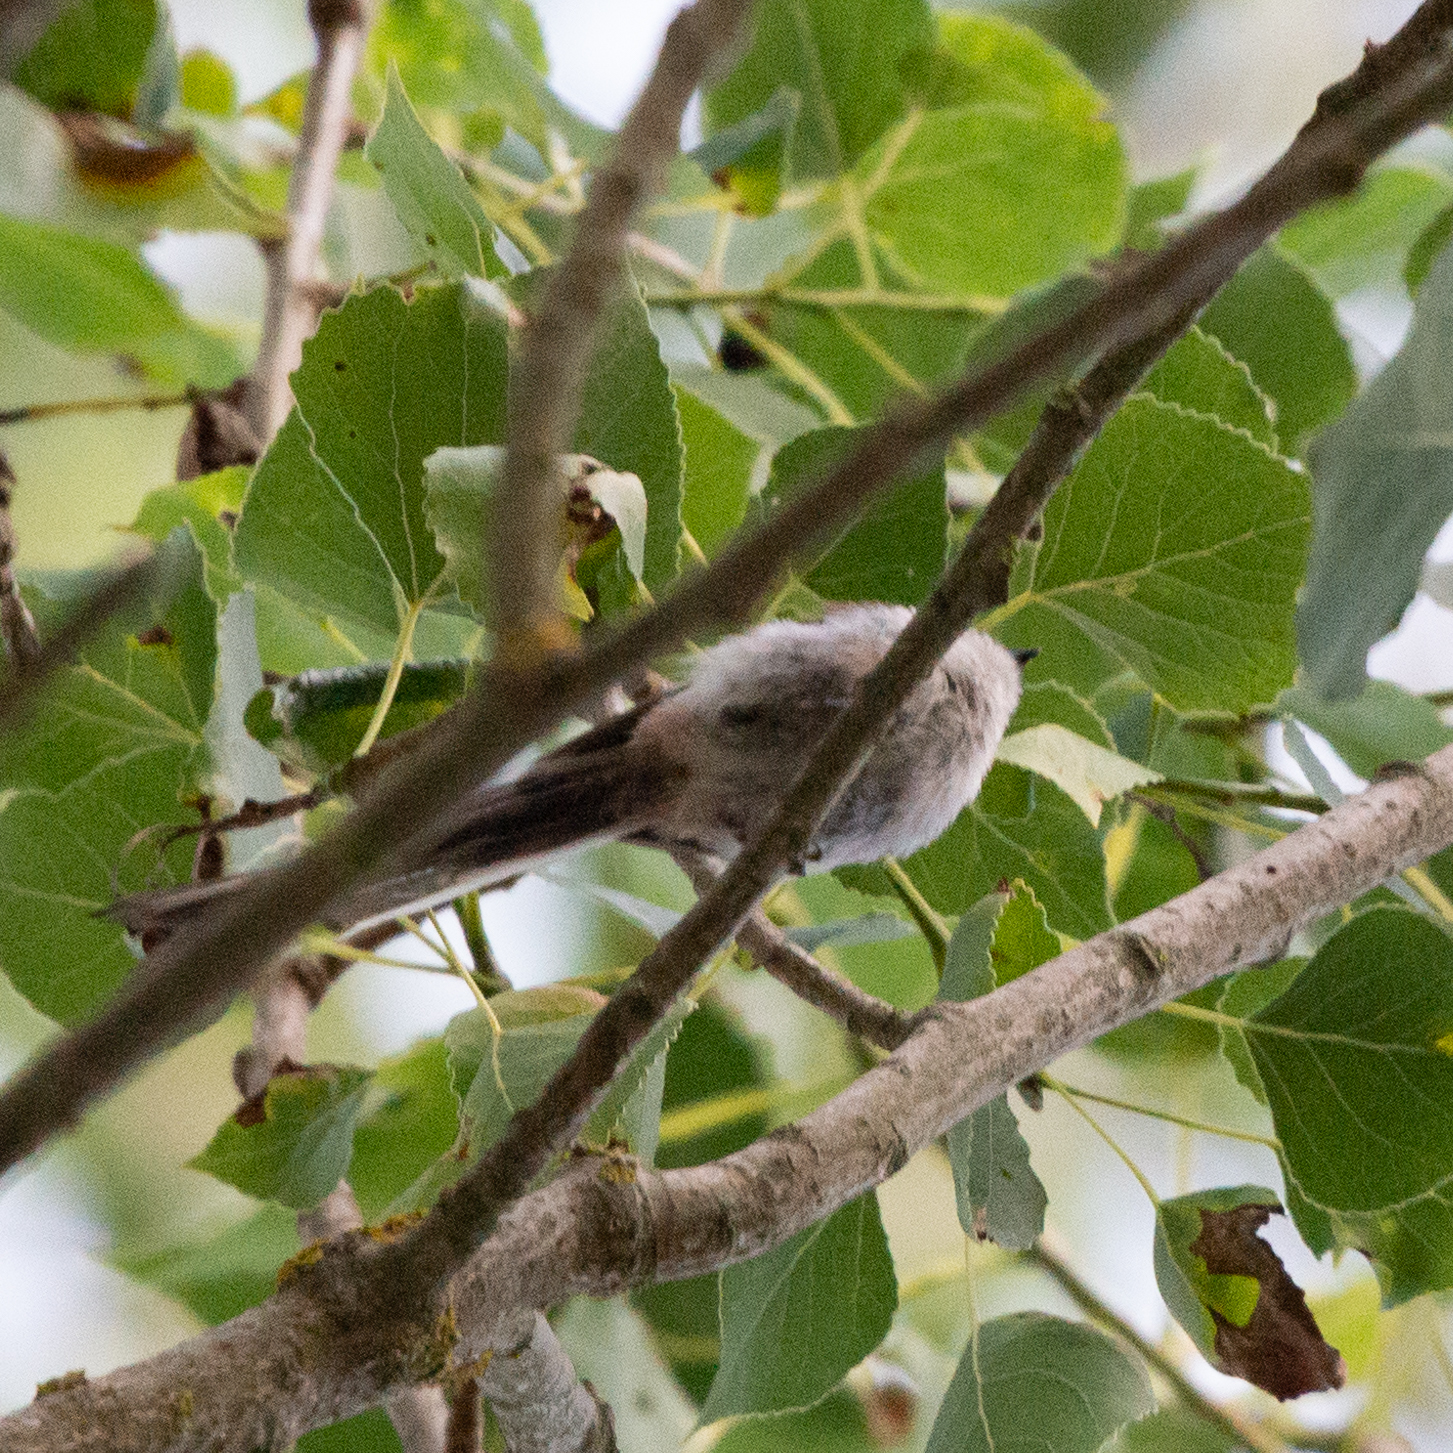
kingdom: Animalia
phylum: Chordata
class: Aves
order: Passeriformes
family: Aegithalidae
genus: Aegithalos
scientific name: Aegithalos caudatus
